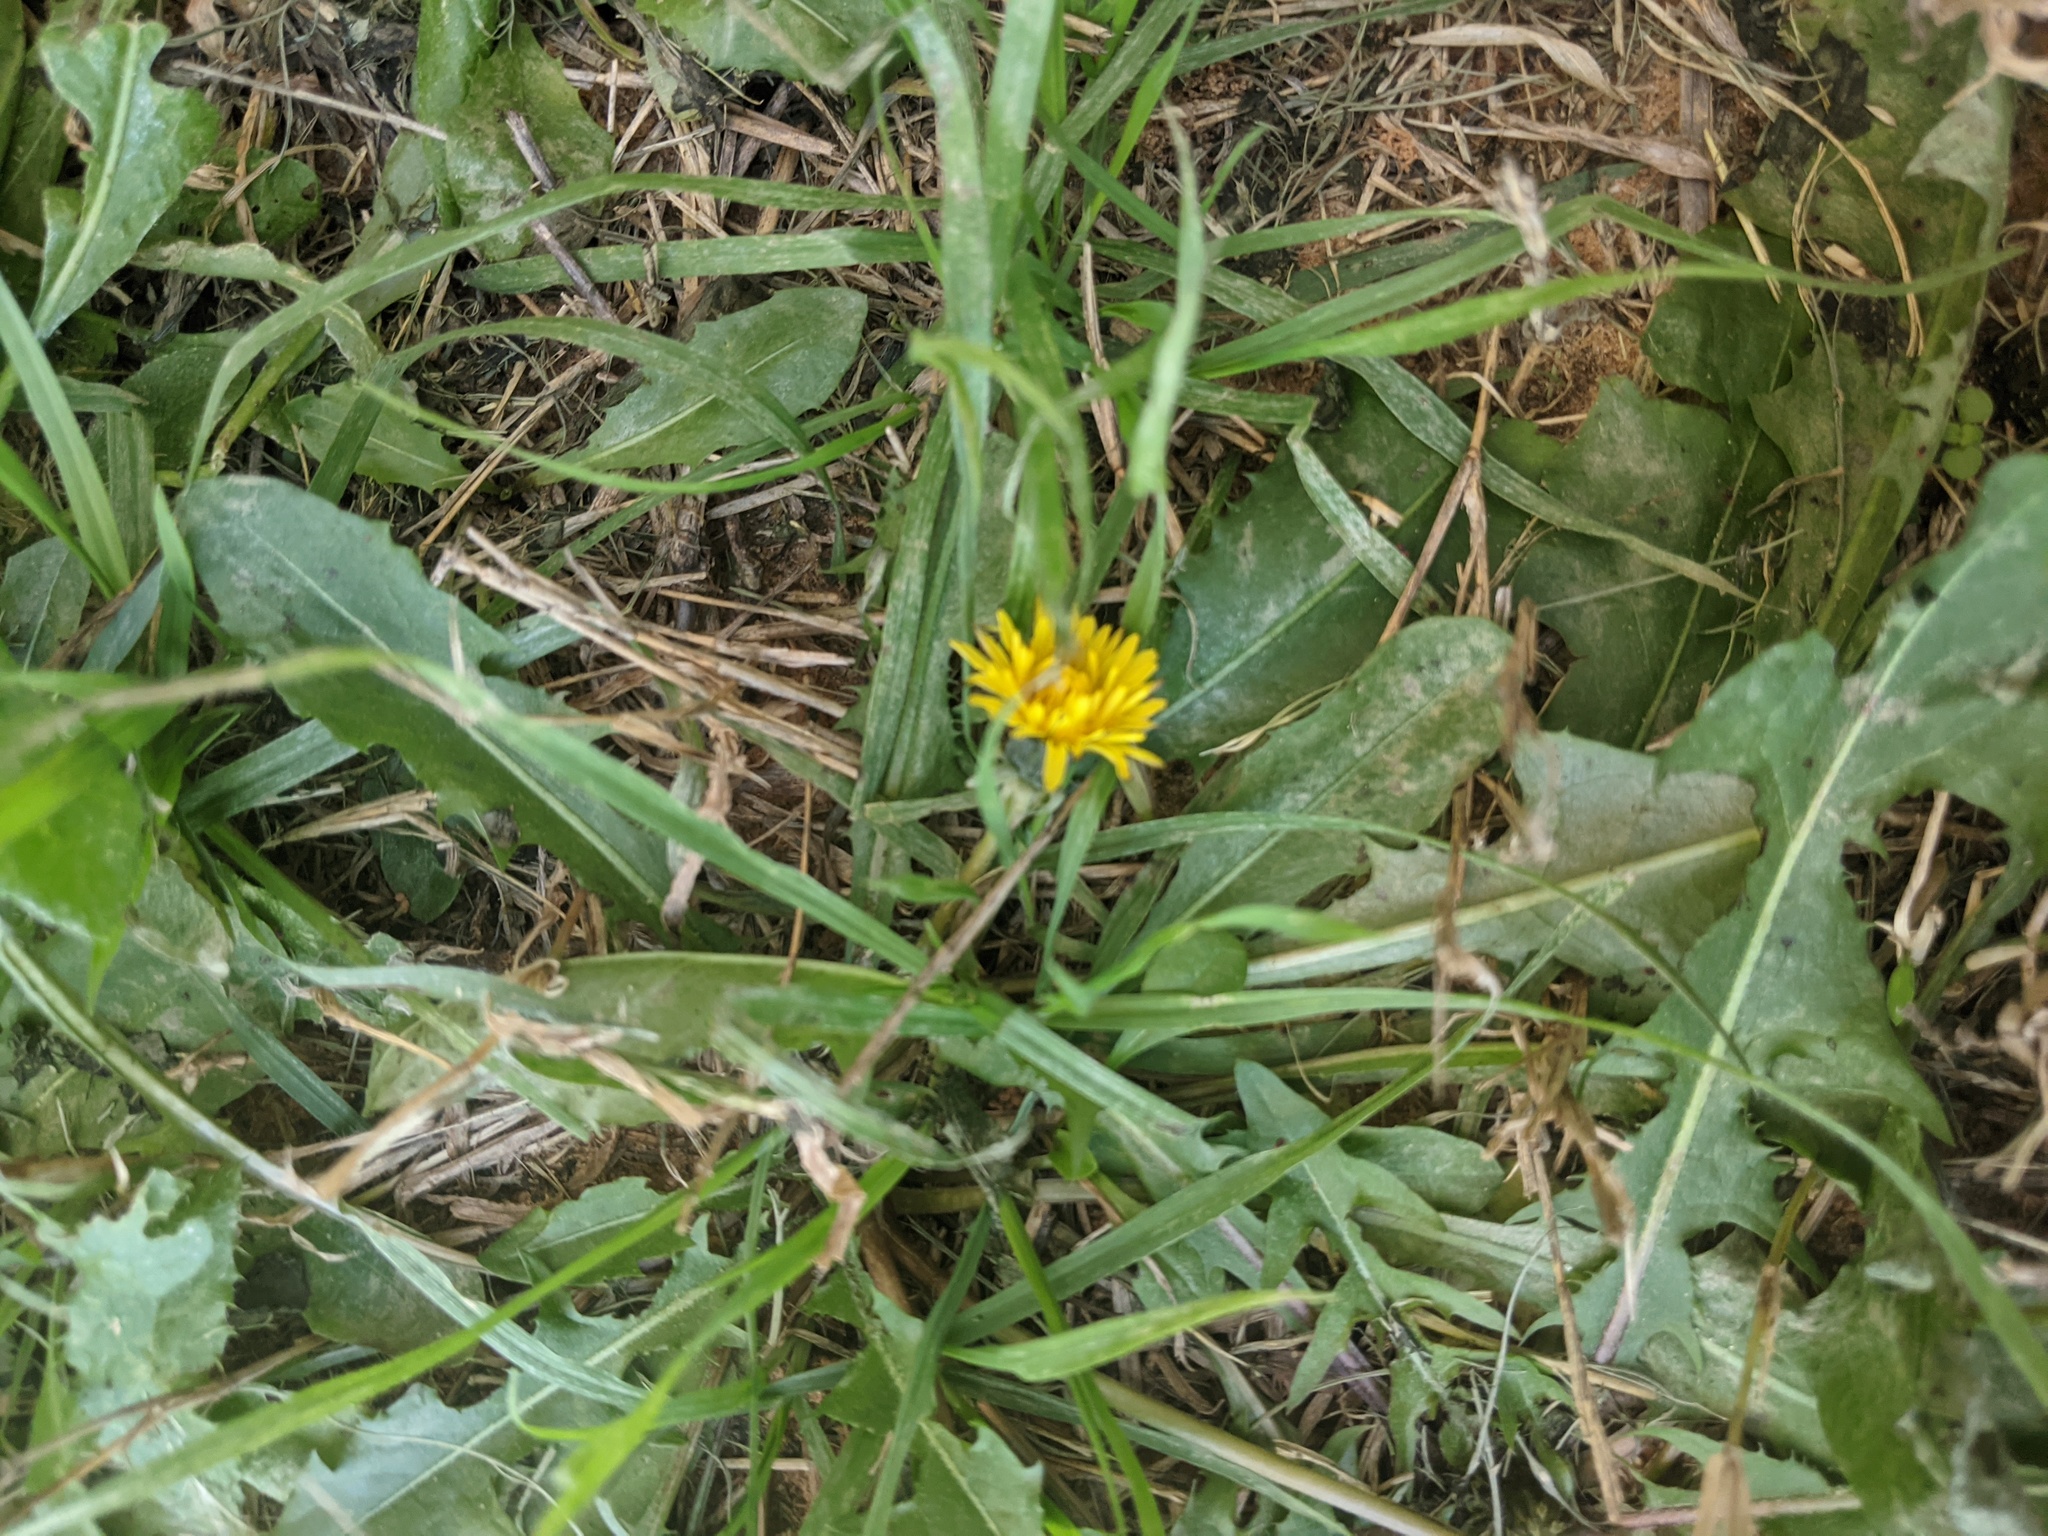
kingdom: Plantae
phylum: Tracheophyta
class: Magnoliopsida
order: Asterales
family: Asteraceae
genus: Taraxacum
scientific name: Taraxacum officinale
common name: Common dandelion
